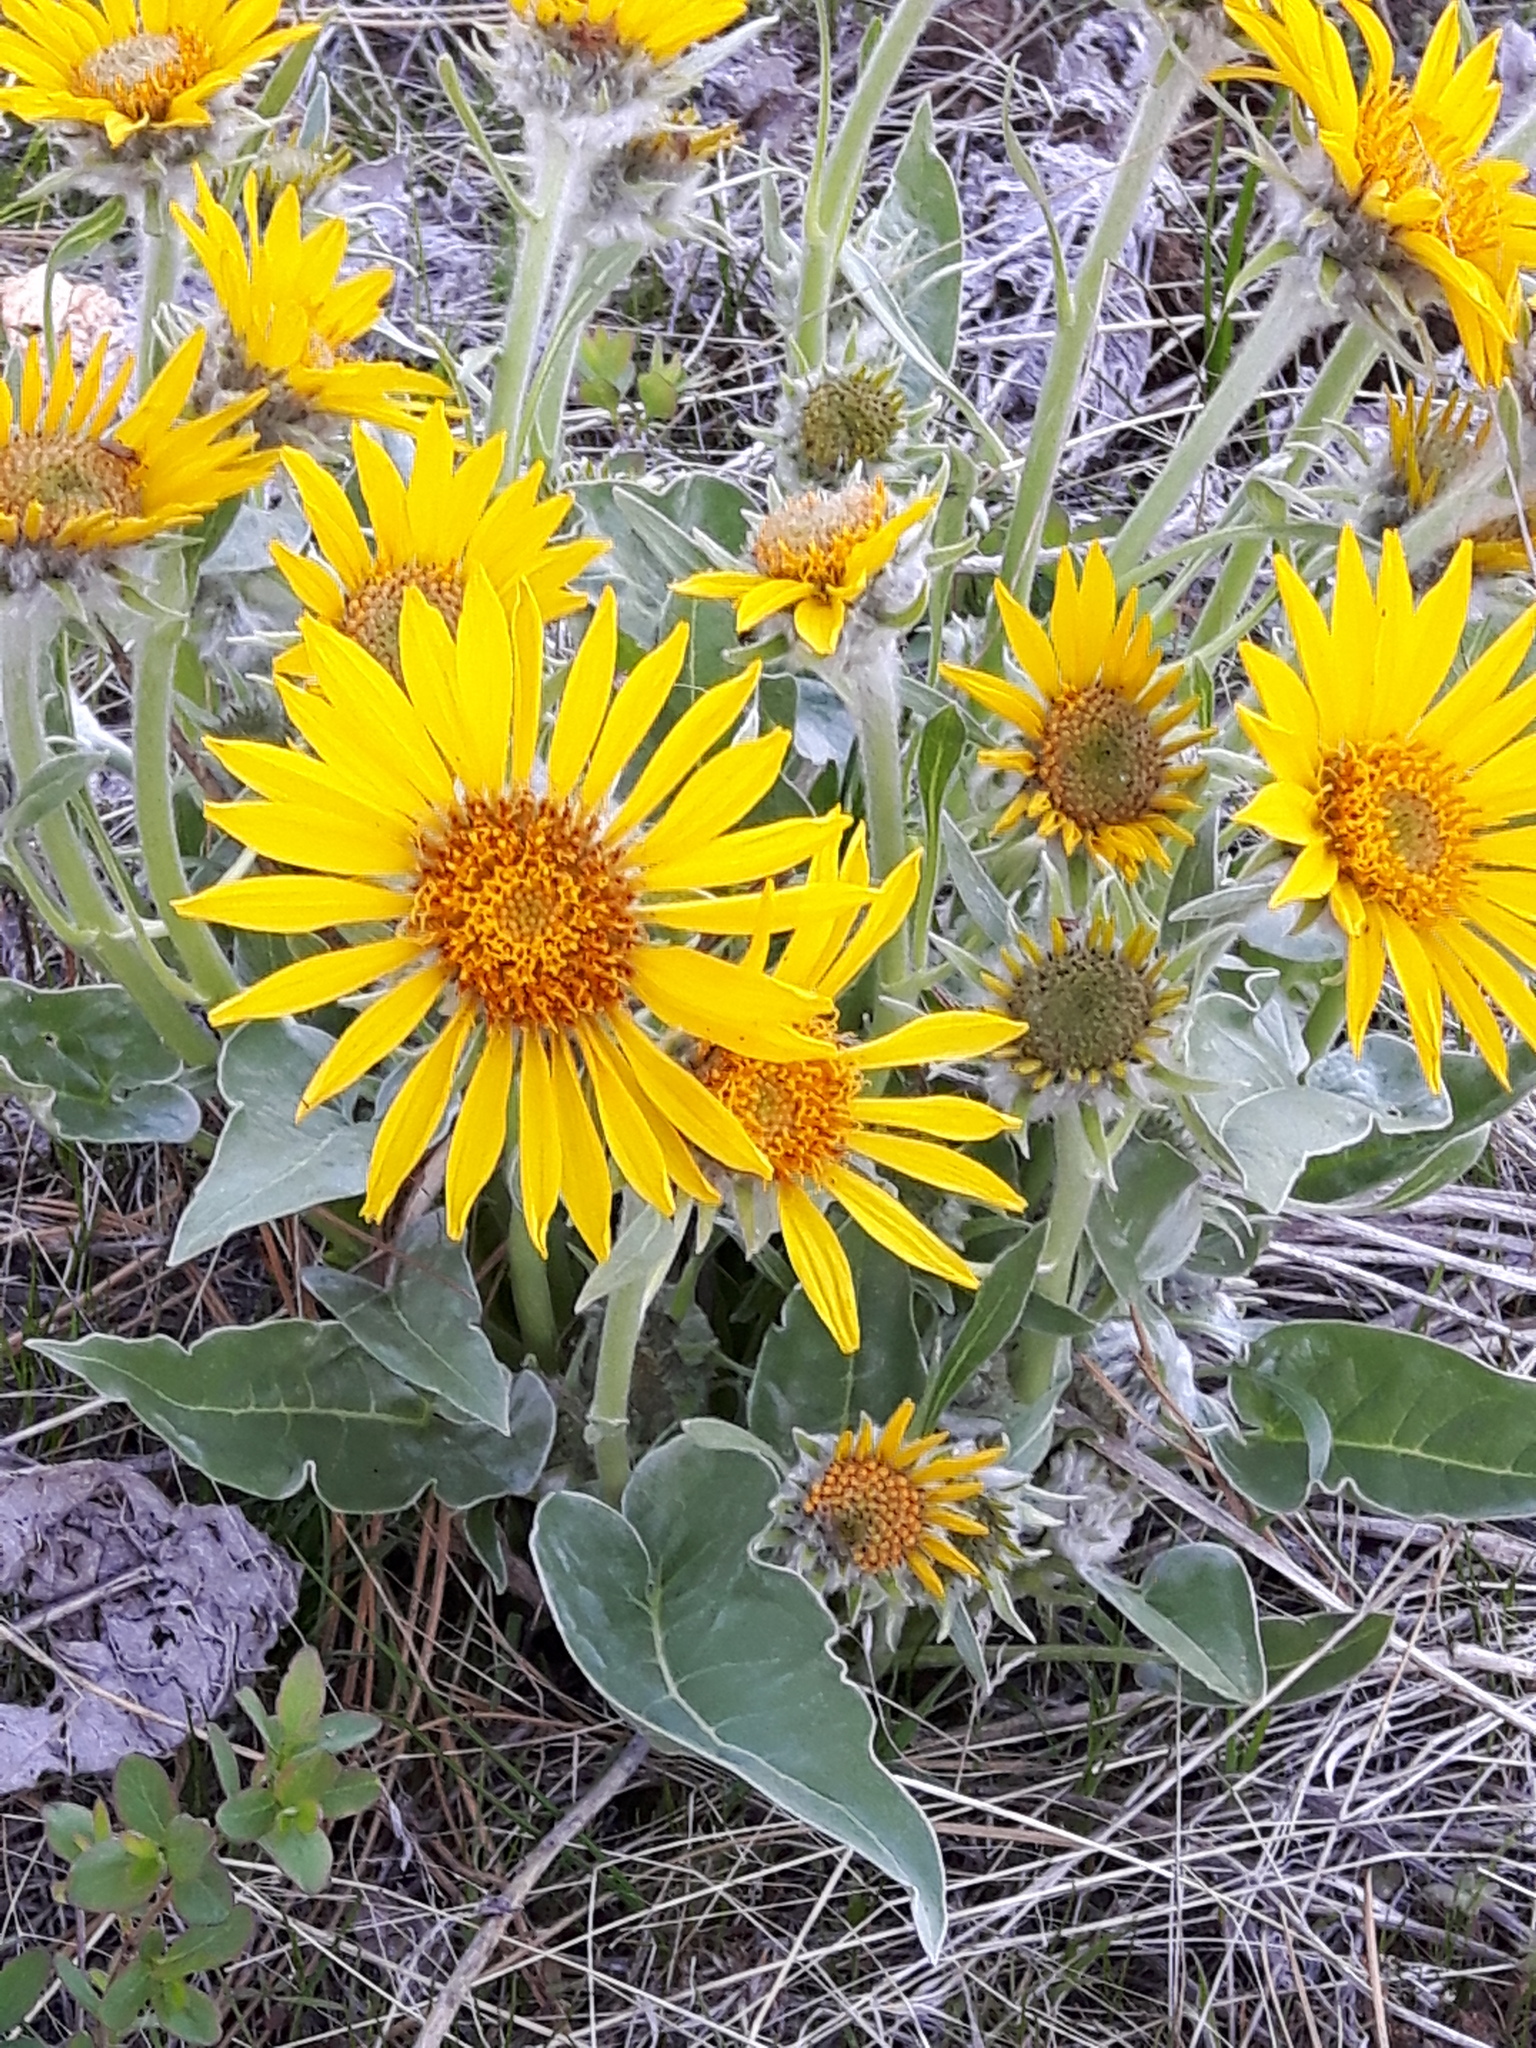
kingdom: Plantae
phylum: Tracheophyta
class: Magnoliopsida
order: Asterales
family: Asteraceae
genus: Wyethia
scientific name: Wyethia sagittata
